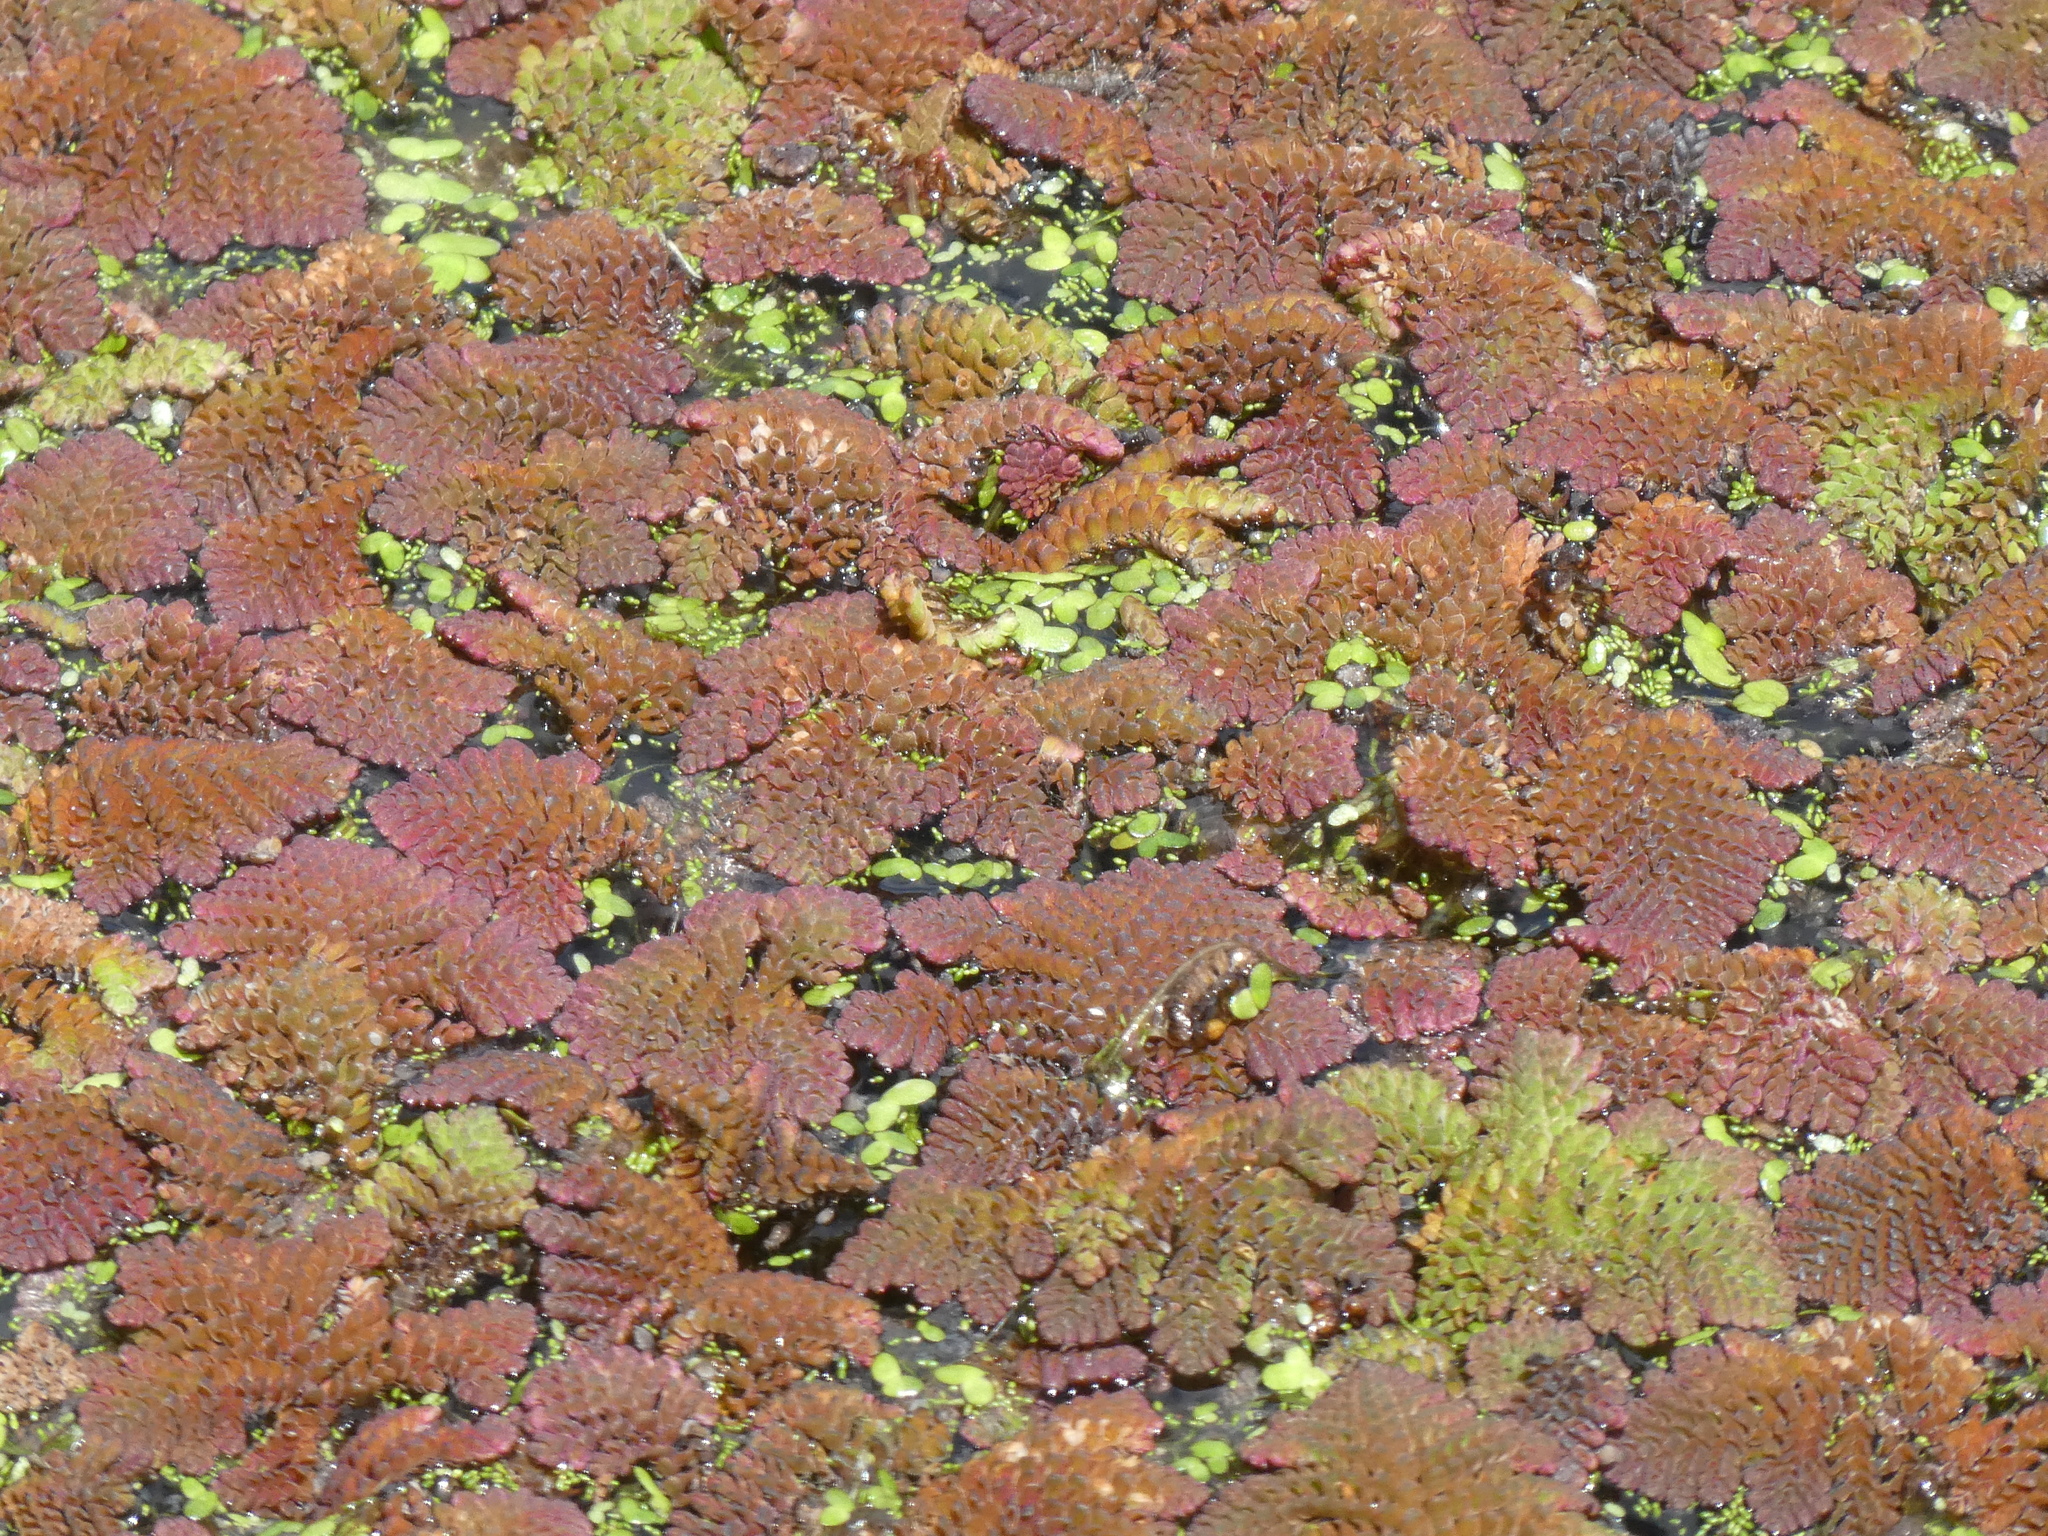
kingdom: Plantae
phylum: Tracheophyta
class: Polypodiopsida
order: Salviniales
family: Salviniaceae
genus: Azolla
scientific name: Azolla pinnata
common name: Ferny azolla
